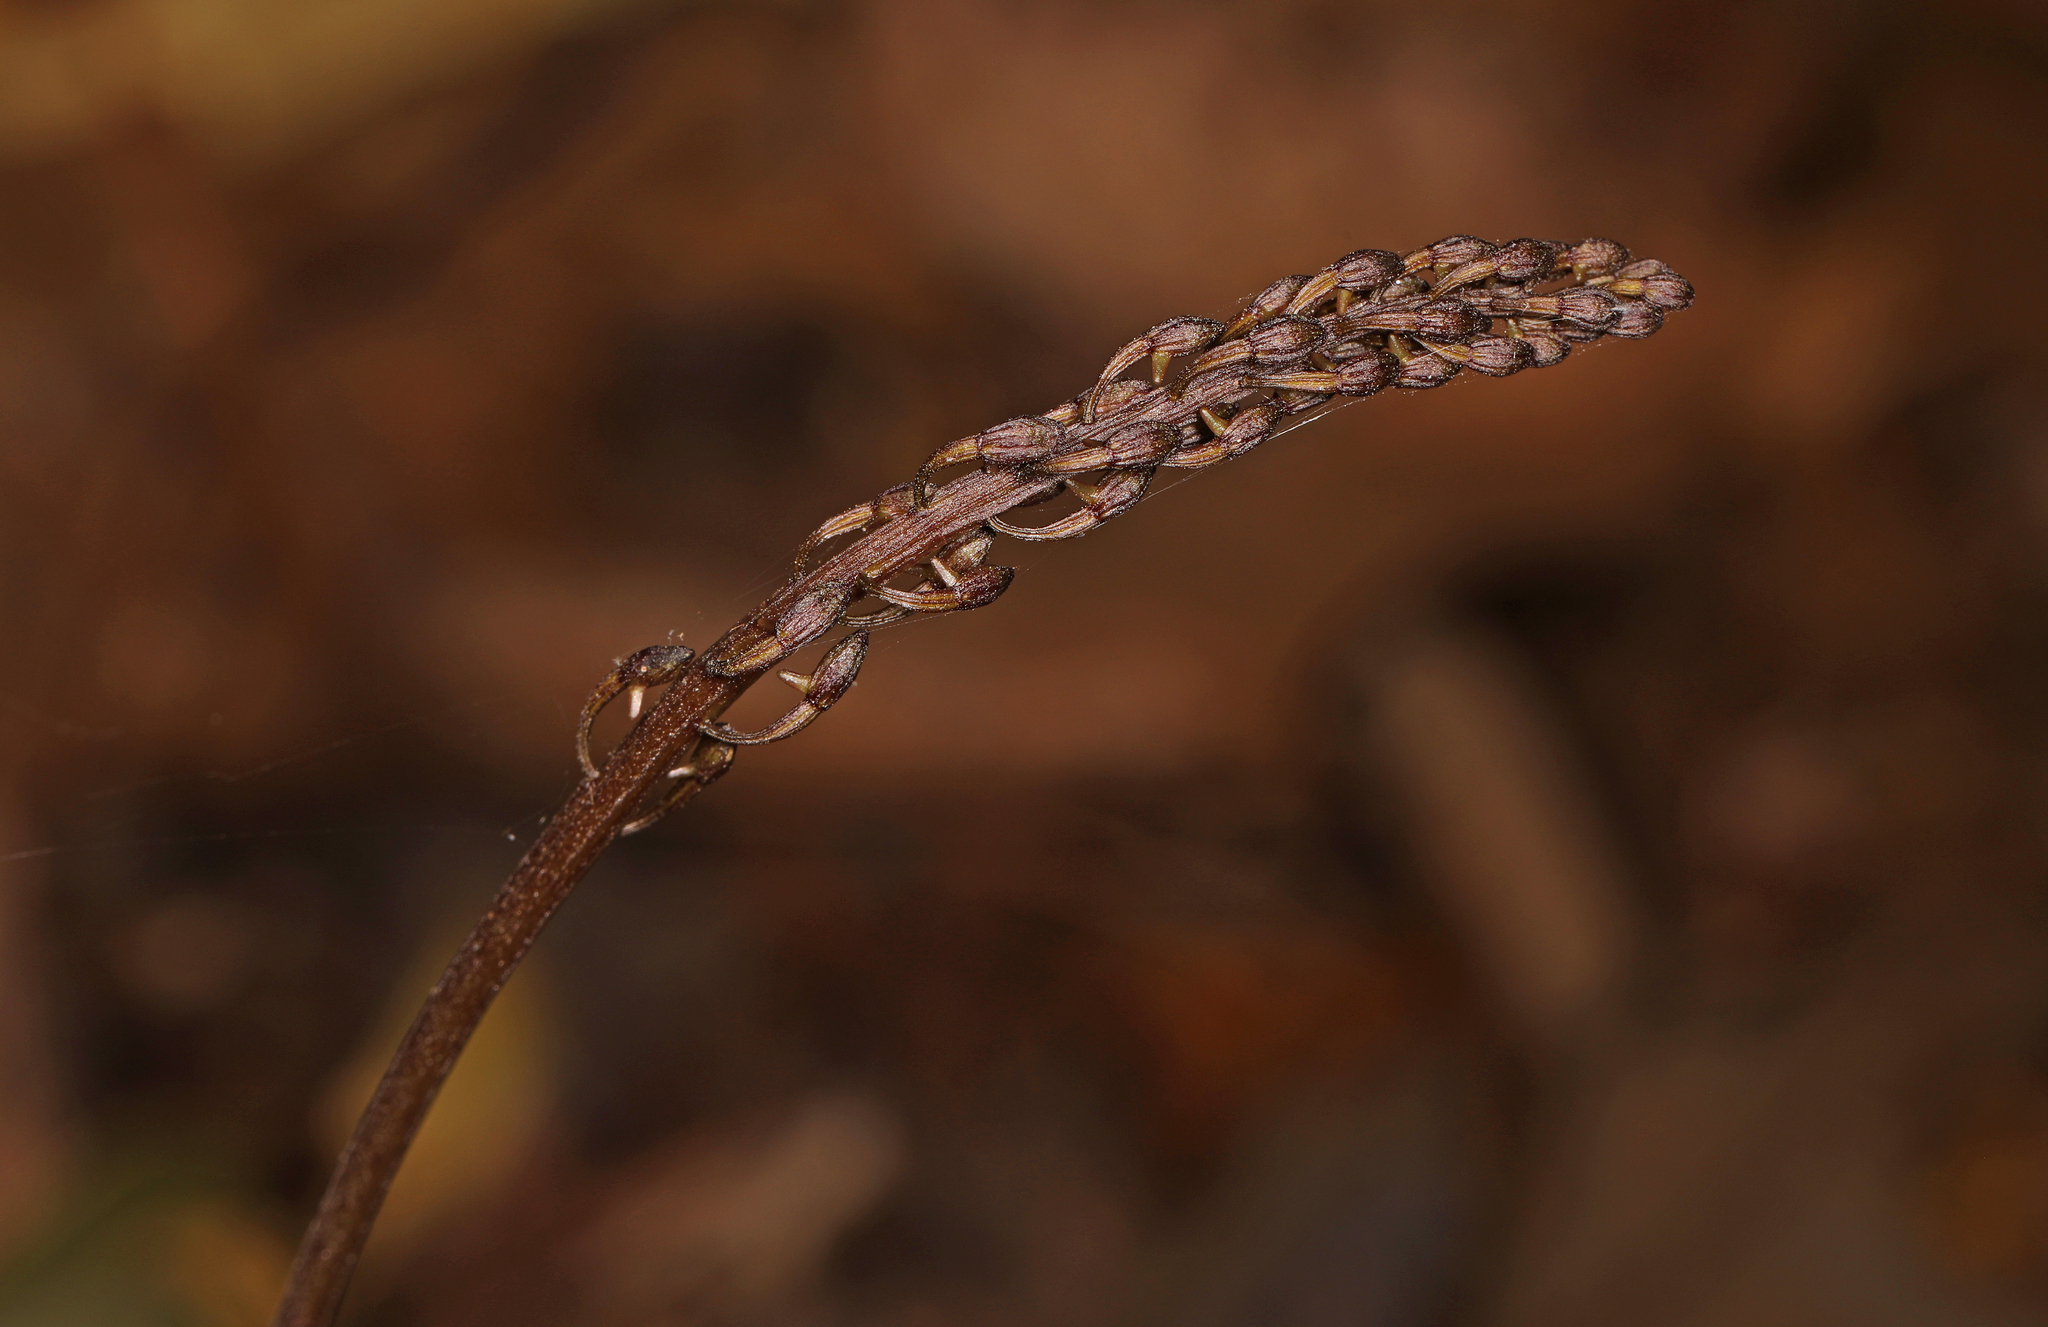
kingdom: Plantae
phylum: Tracheophyta
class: Liliopsida
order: Asparagales
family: Orchidaceae
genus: Tipularia
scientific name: Tipularia discolor
